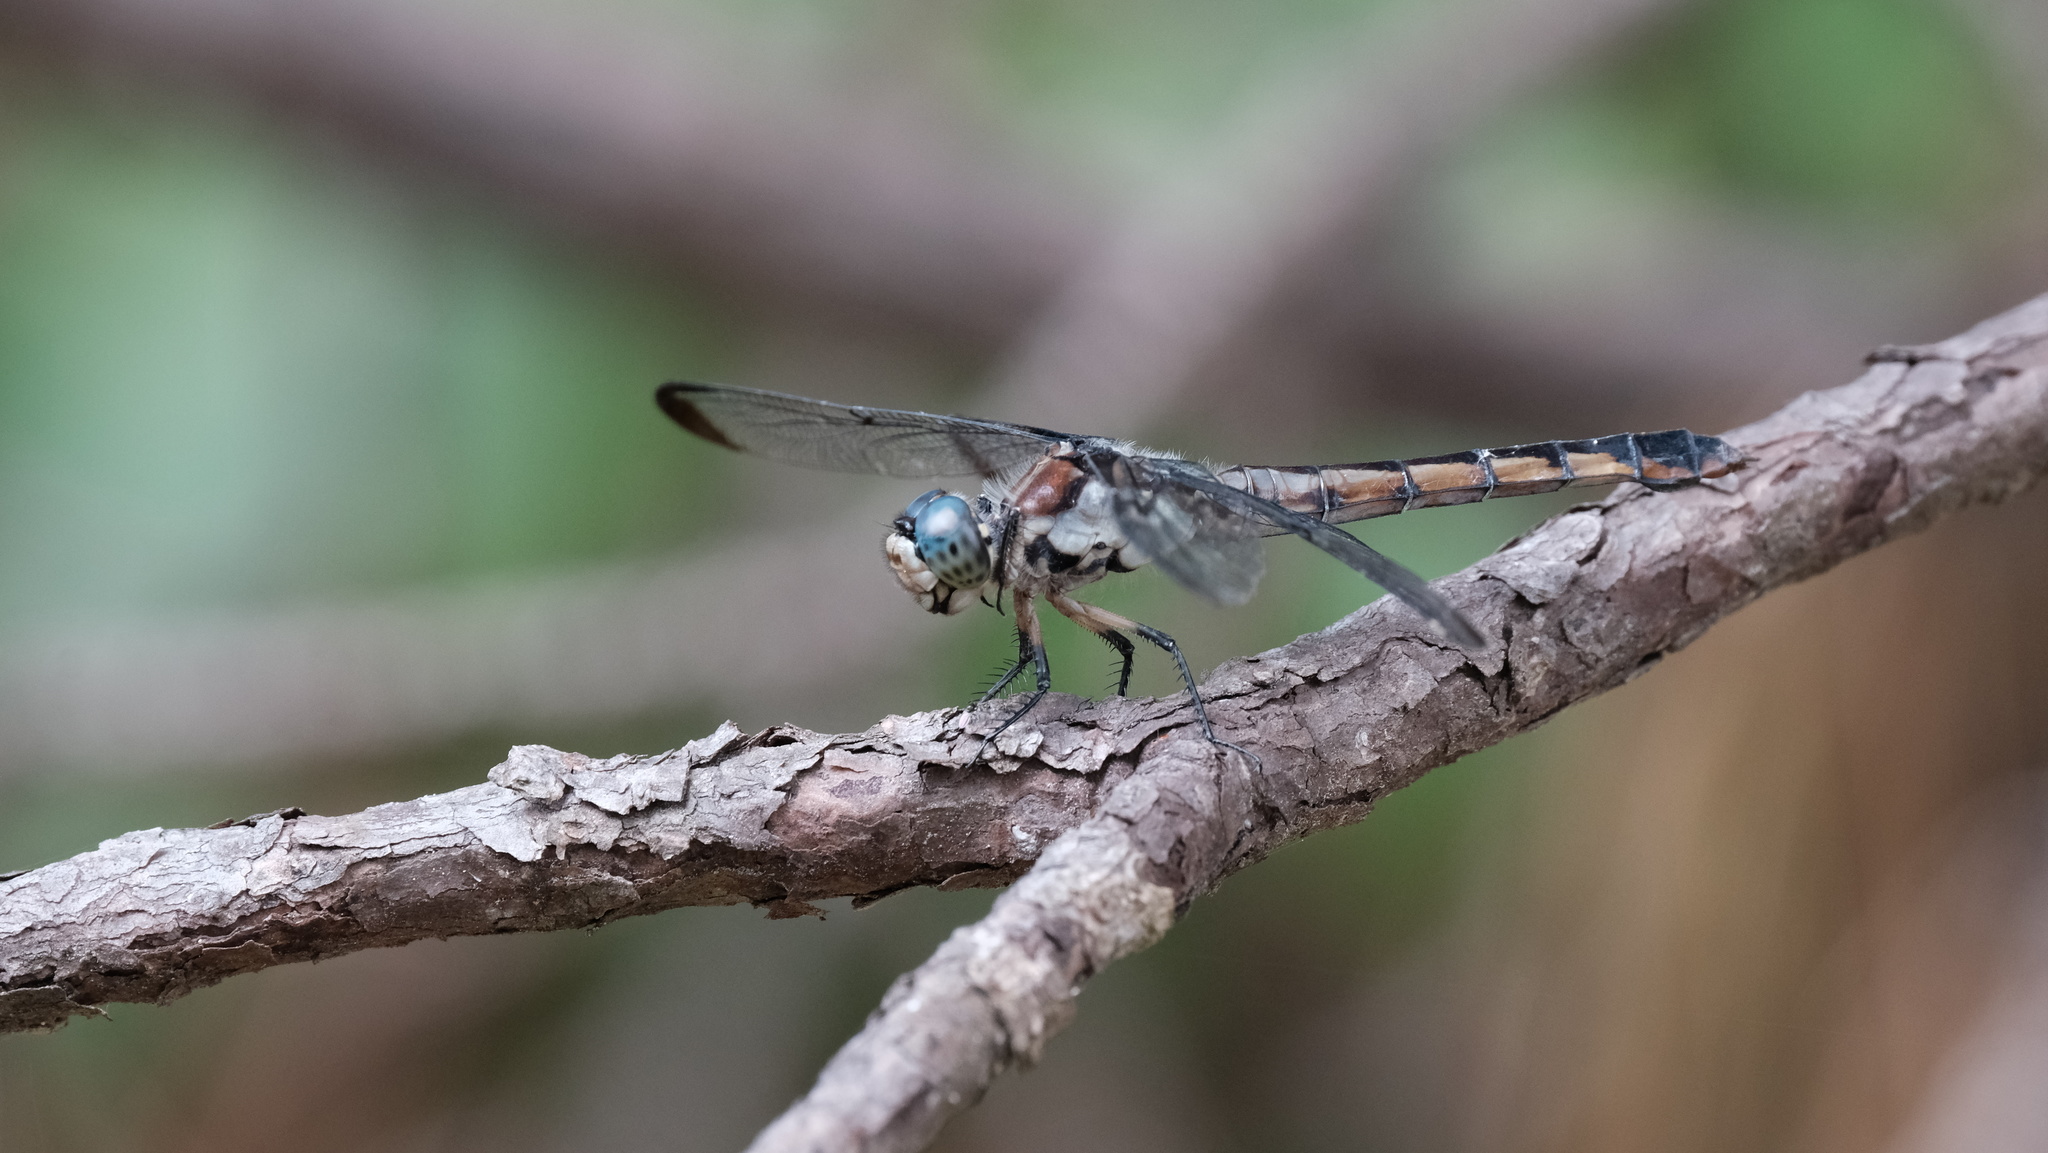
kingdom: Animalia
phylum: Arthropoda
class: Insecta
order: Odonata
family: Libellulidae
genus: Libellula
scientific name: Libellula vibrans
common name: Great blue skimmer
